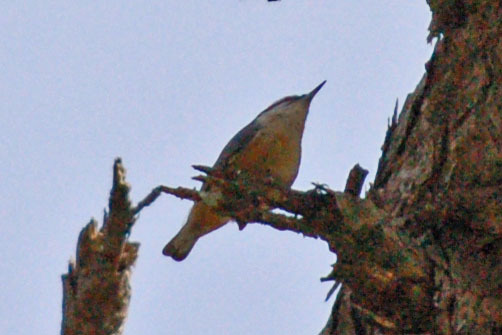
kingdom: Animalia
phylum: Chordata
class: Aves
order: Passeriformes
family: Sittidae
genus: Sitta
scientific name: Sitta canadensis
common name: Red-breasted nuthatch
